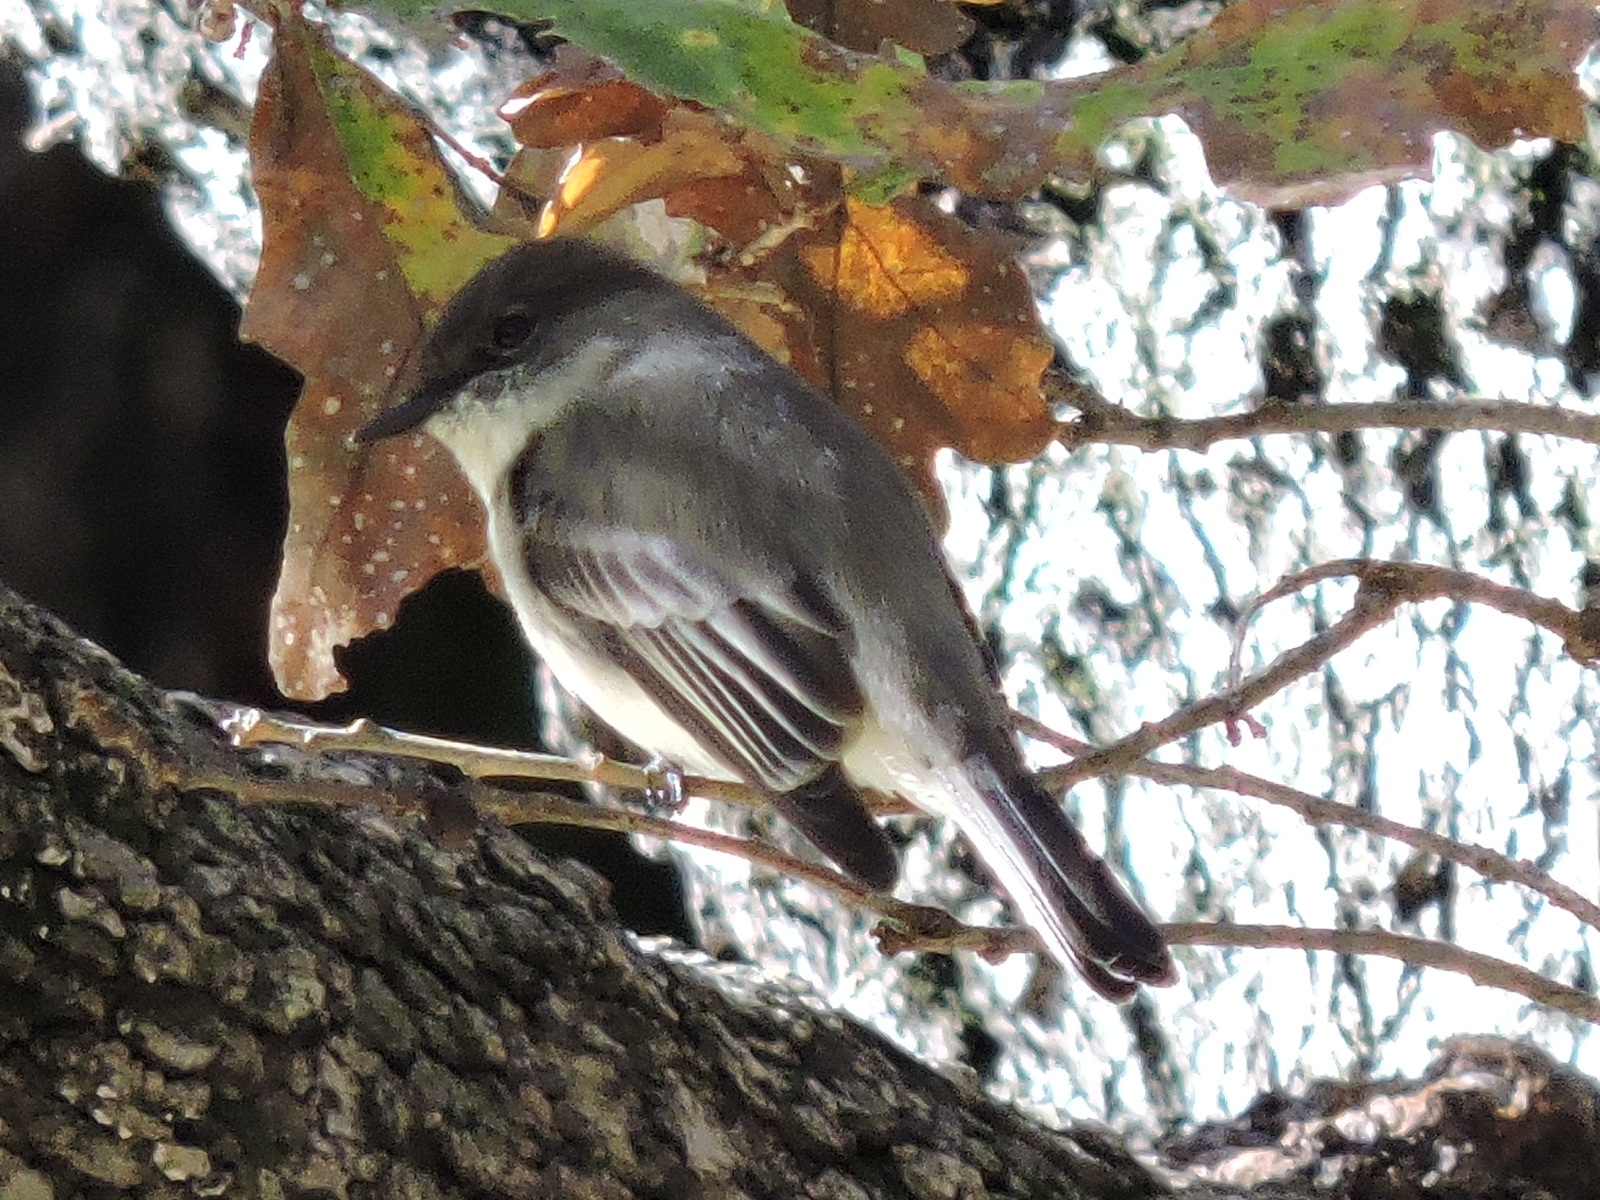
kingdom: Animalia
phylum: Chordata
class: Aves
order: Passeriformes
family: Tyrannidae
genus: Sayornis
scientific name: Sayornis phoebe
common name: Eastern phoebe
